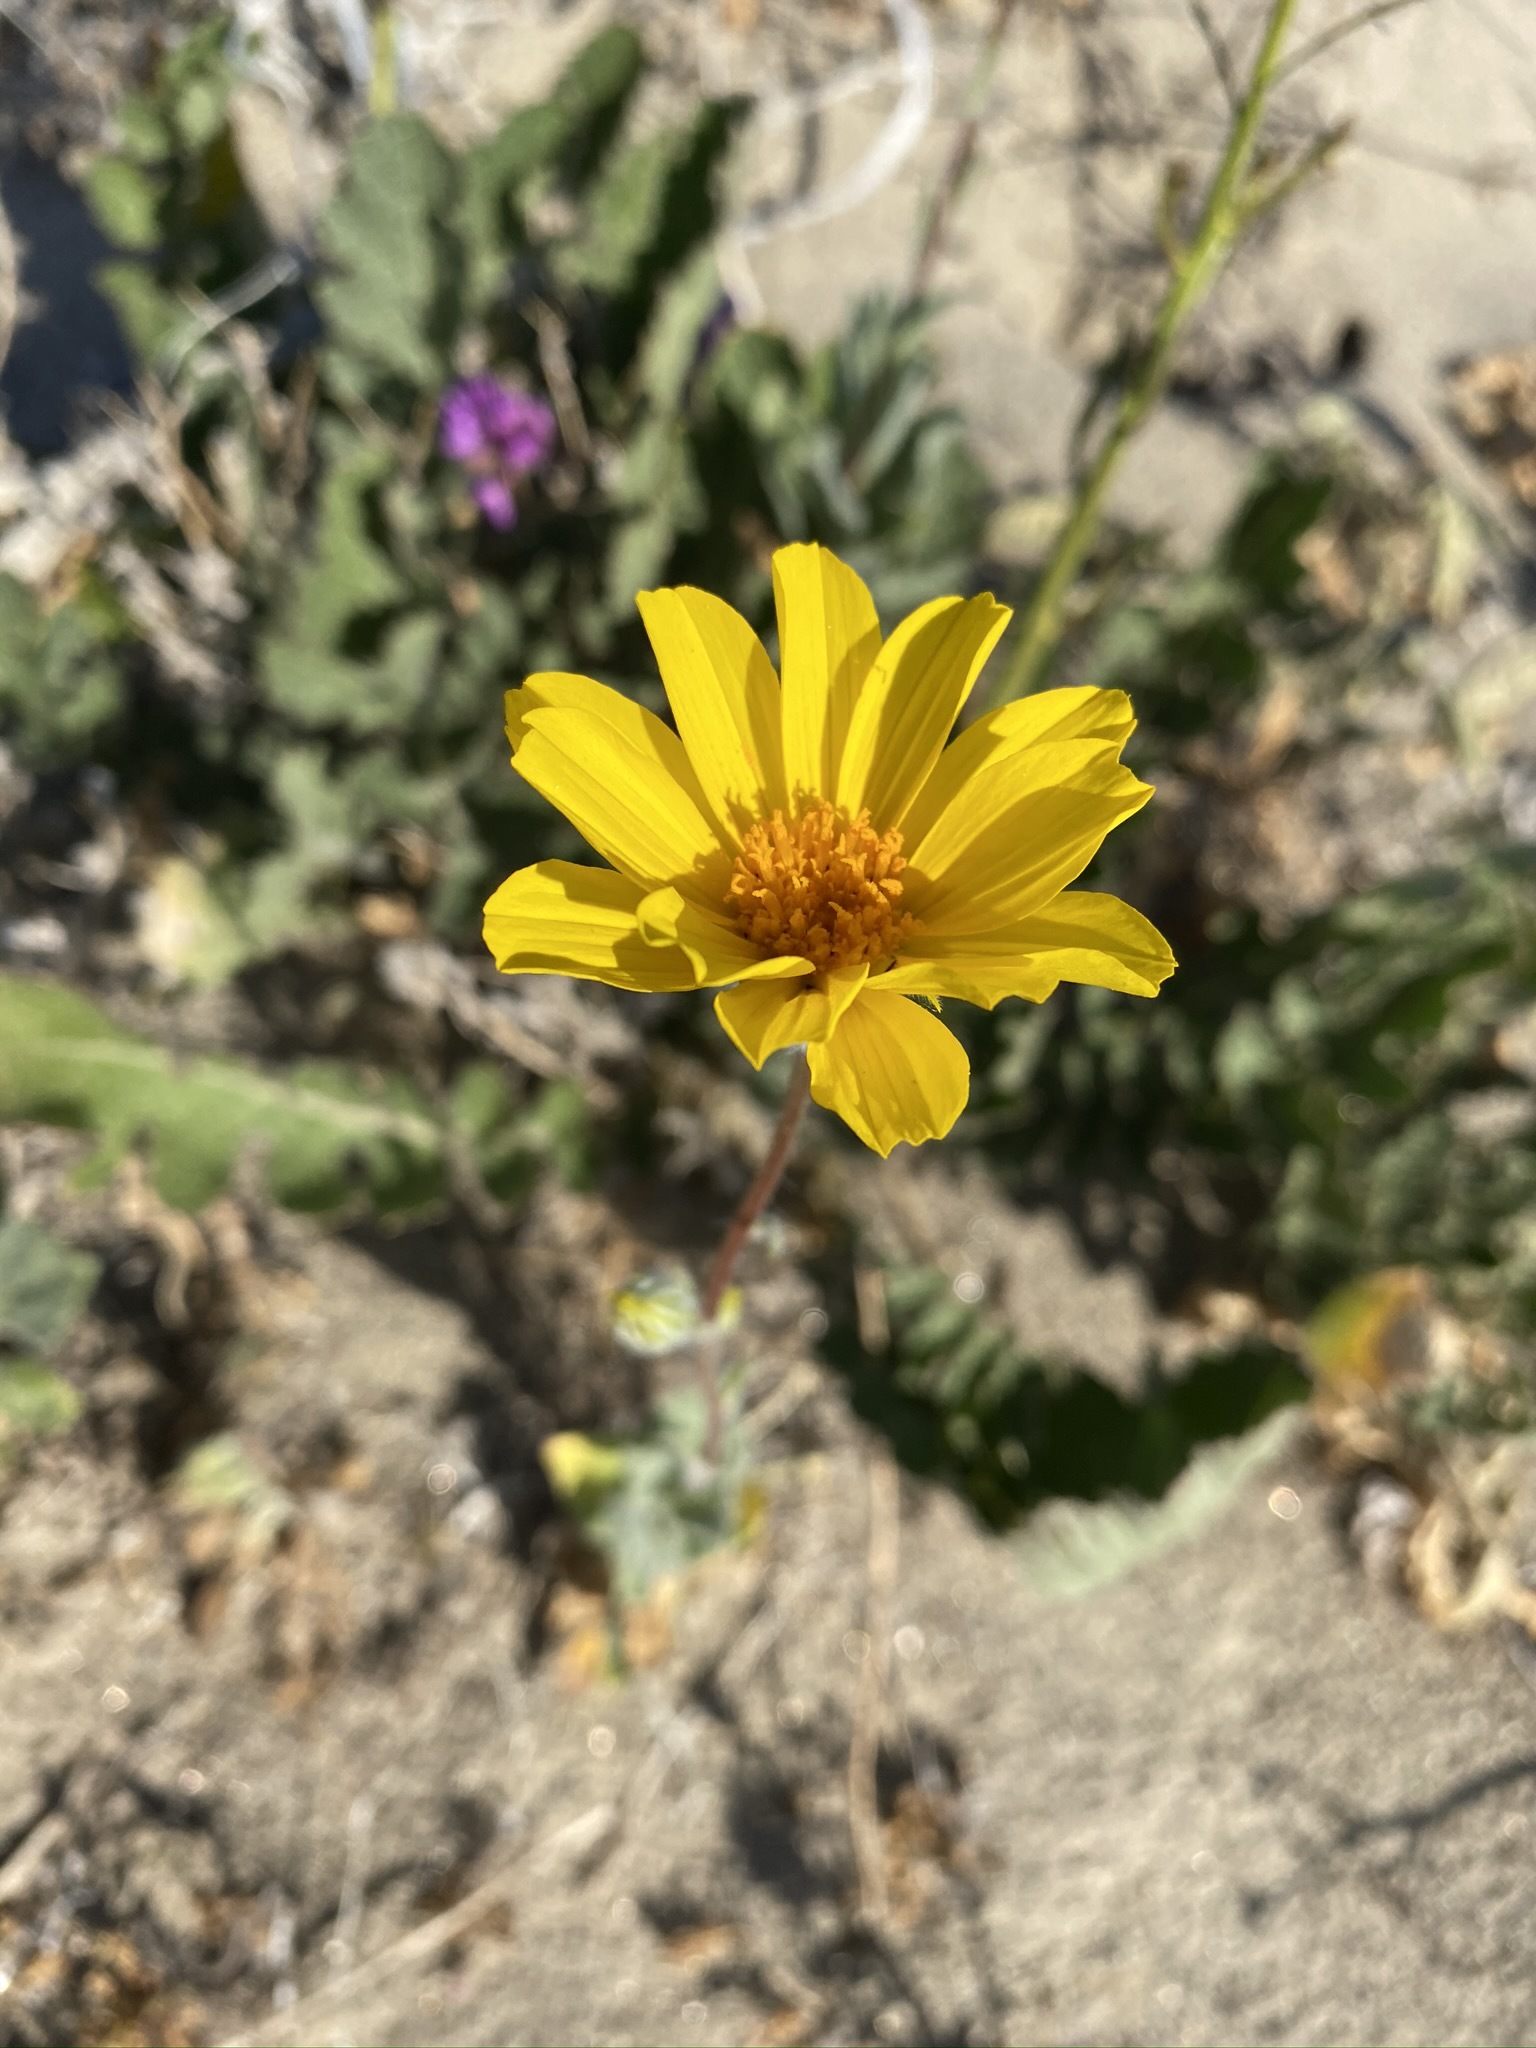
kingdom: Plantae
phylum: Tracheophyta
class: Magnoliopsida
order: Asterales
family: Asteraceae
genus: Geraea
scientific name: Geraea canescens
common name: Desert-gold
